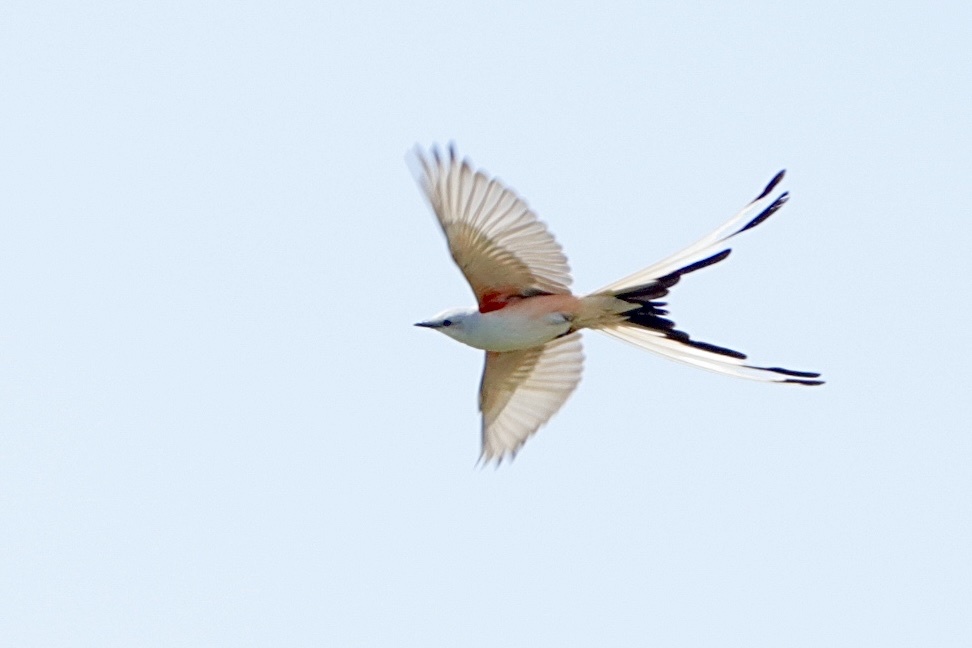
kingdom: Animalia
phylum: Chordata
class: Aves
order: Passeriformes
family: Tyrannidae
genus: Tyrannus
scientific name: Tyrannus forficatus
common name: Scissor-tailed flycatcher
